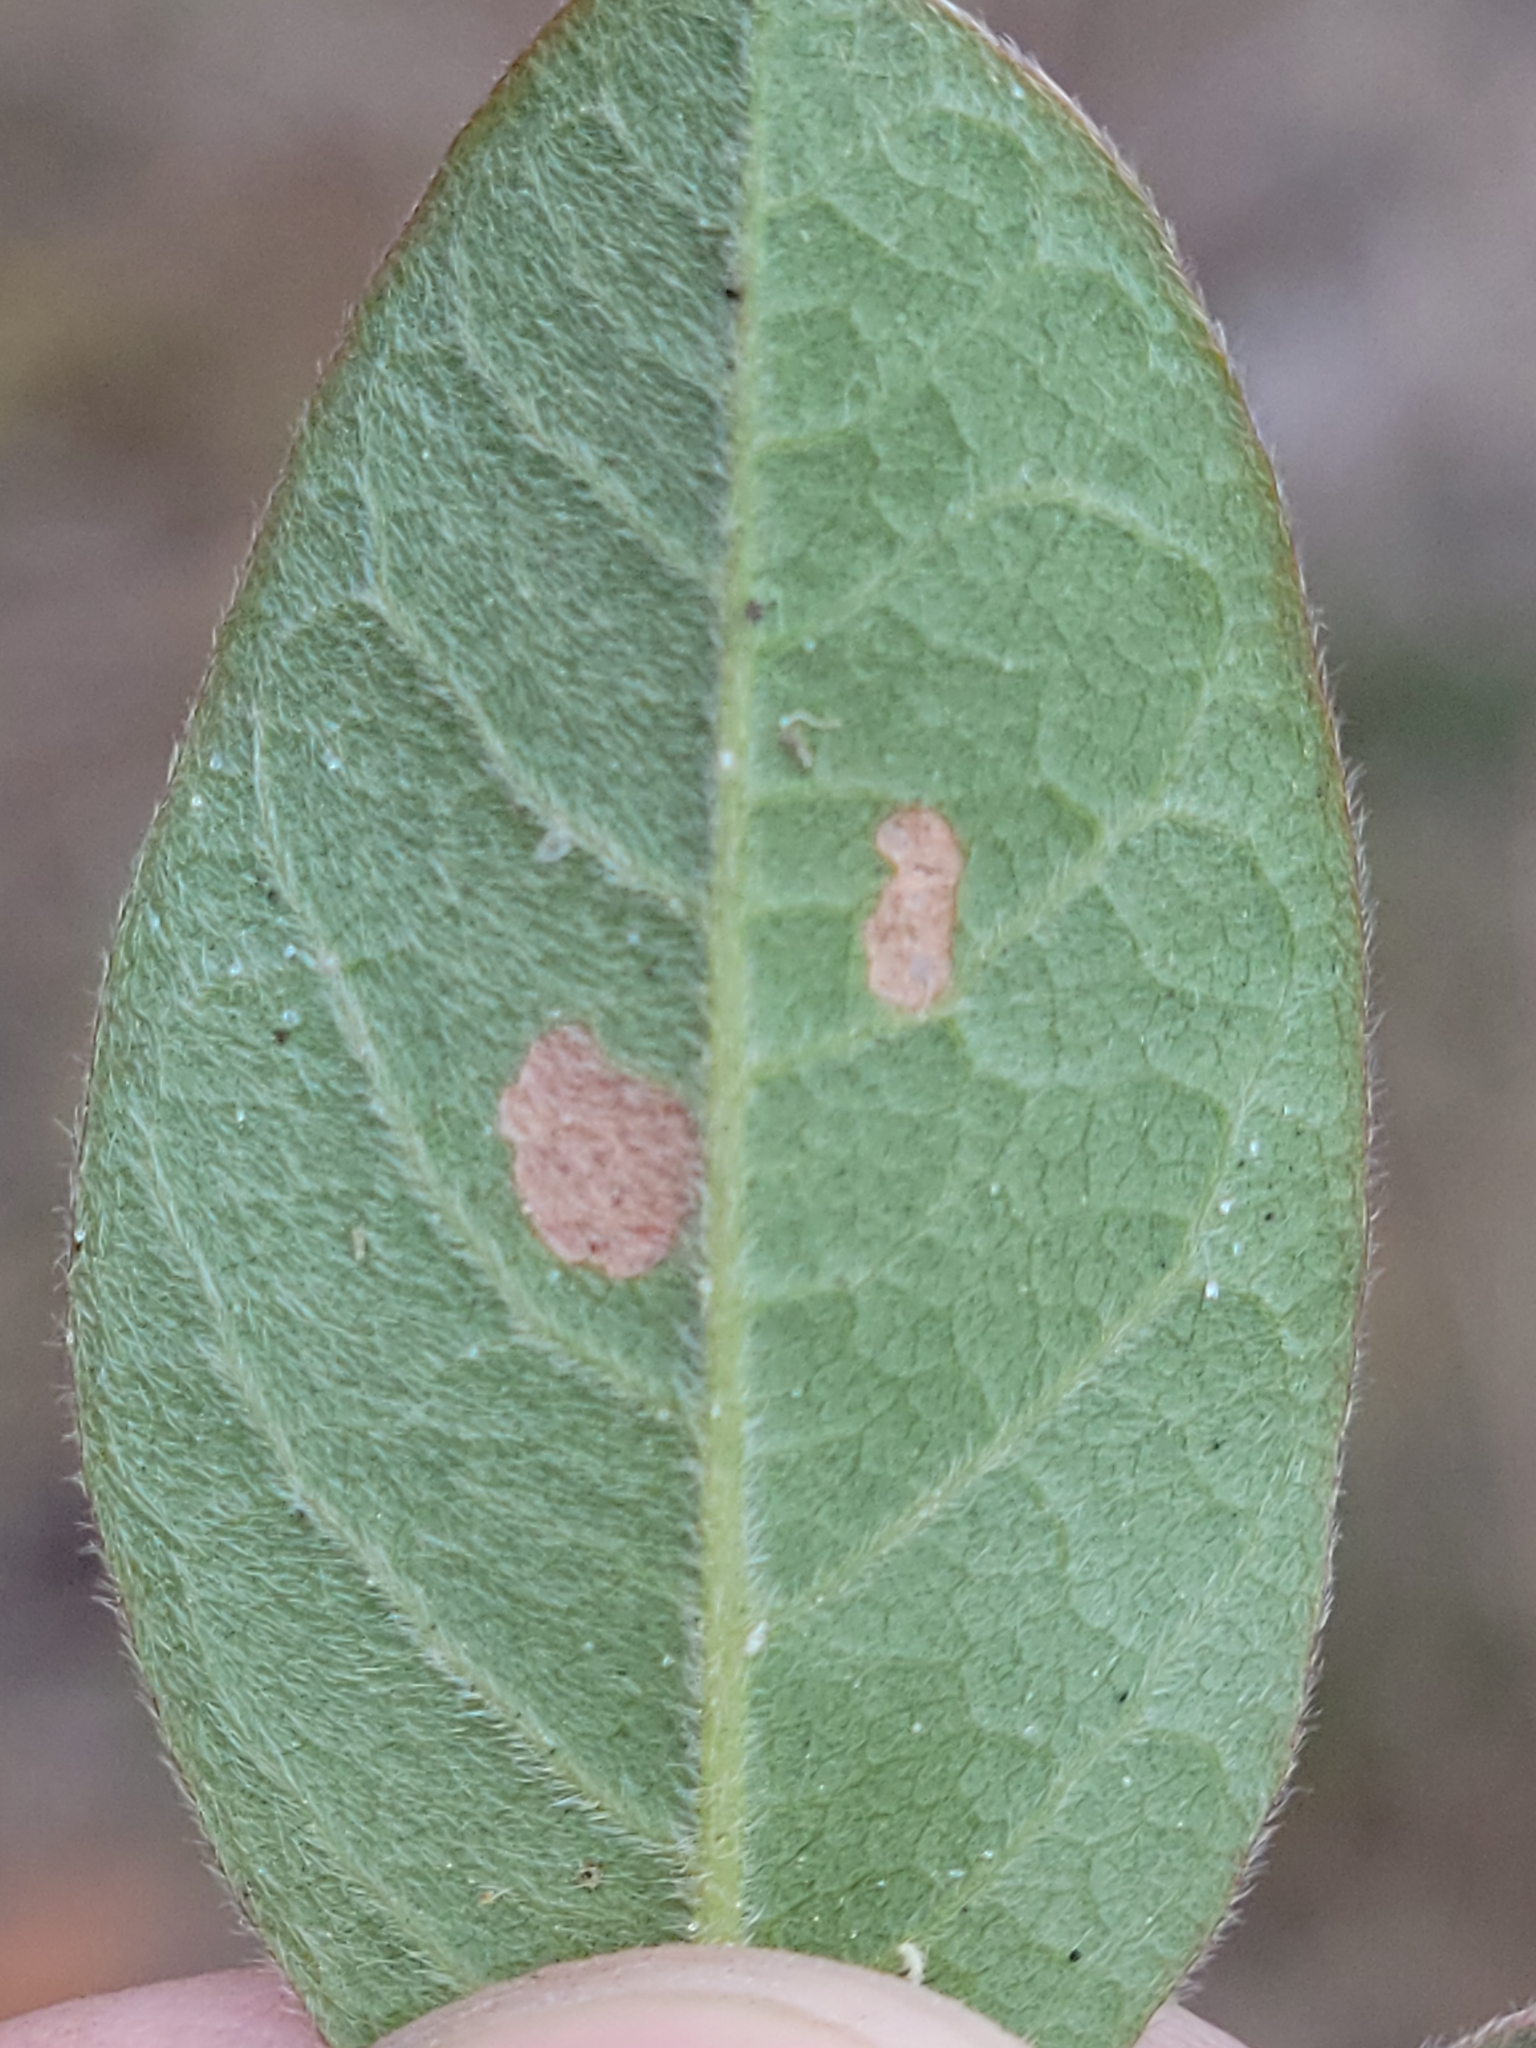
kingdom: Plantae
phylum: Tracheophyta
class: Magnoliopsida
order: Fabales
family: Fabaceae
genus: Galactia
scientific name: Galactia floridana
